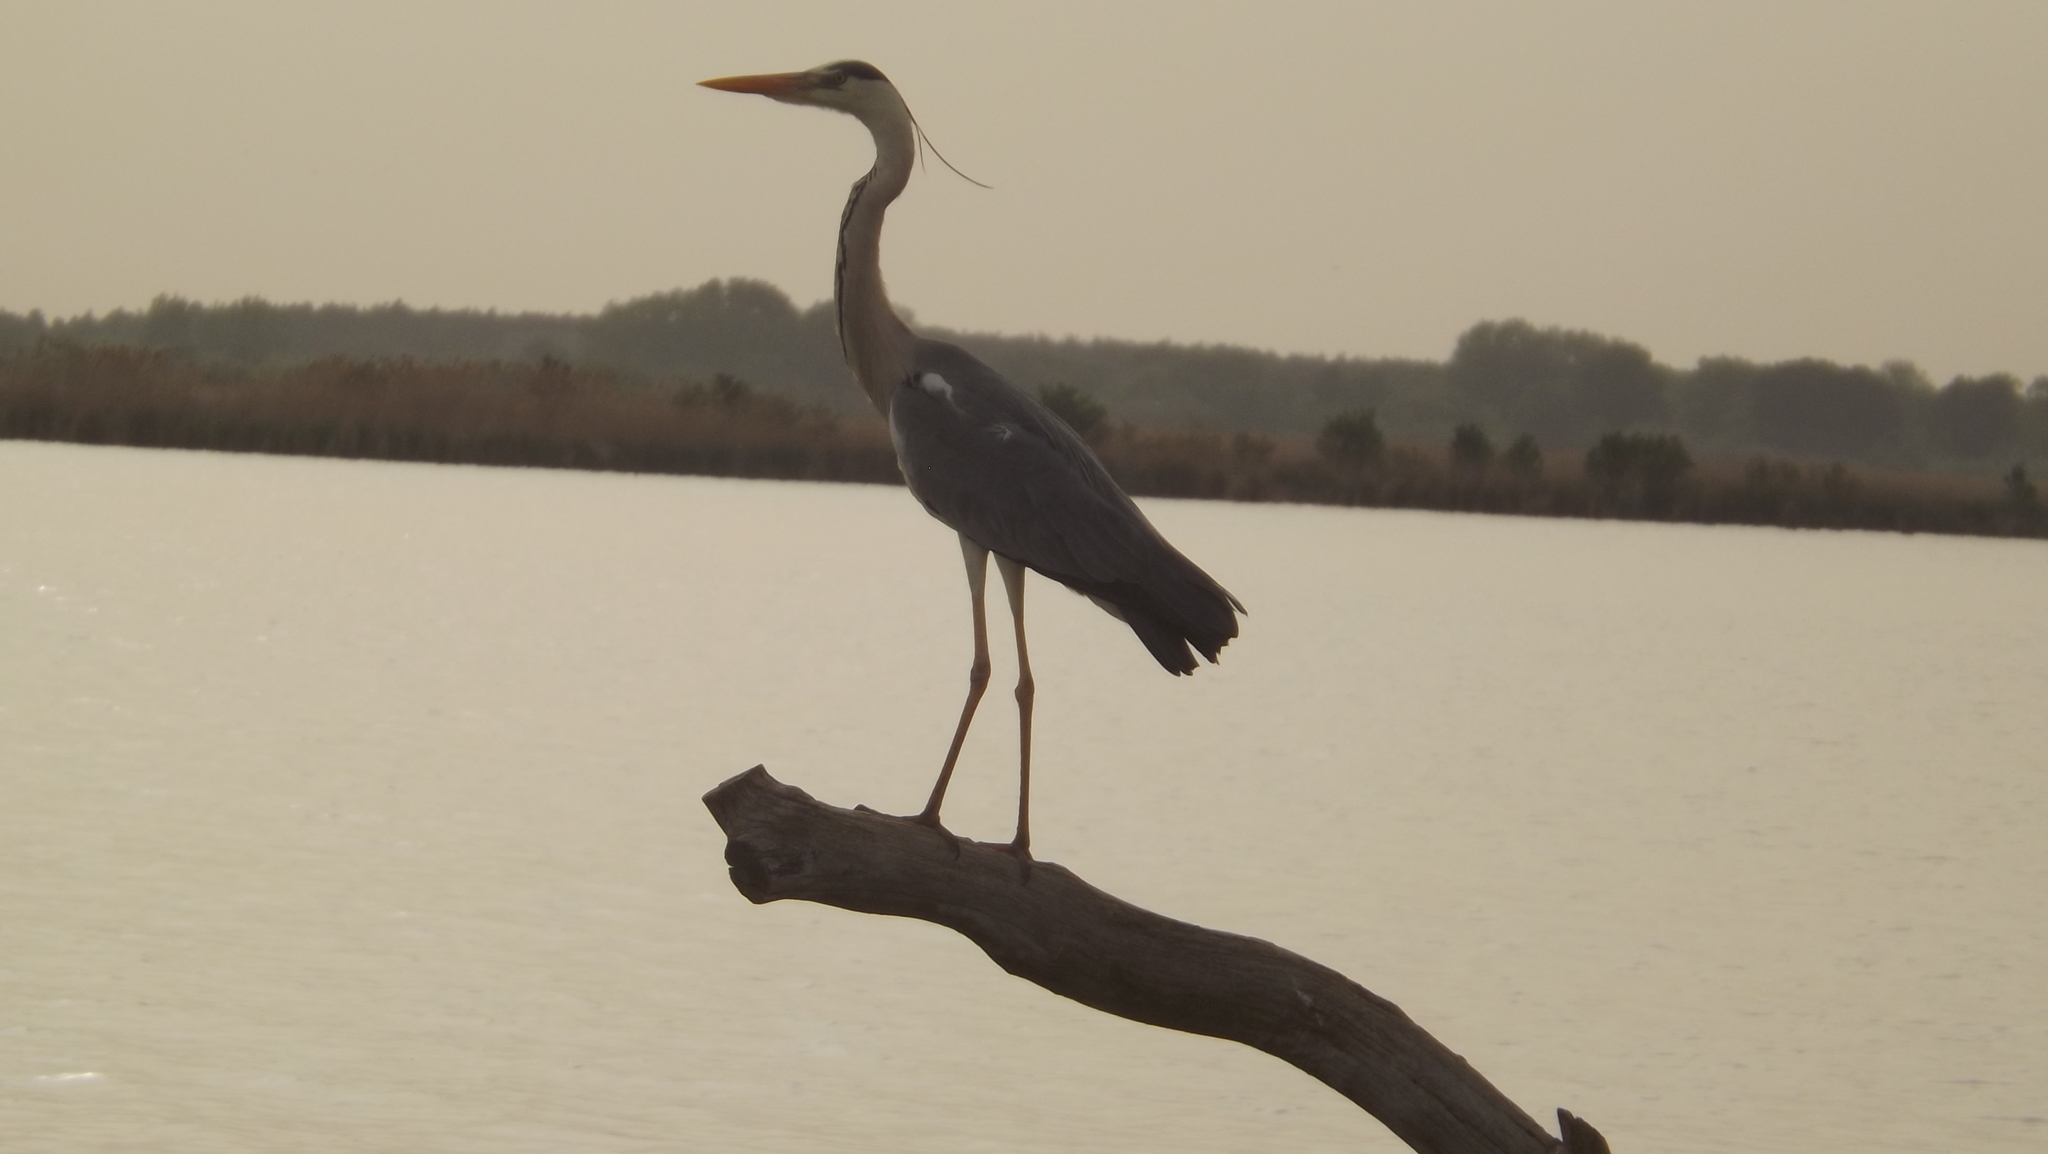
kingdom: Animalia
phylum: Chordata
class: Aves
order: Pelecaniformes
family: Ardeidae
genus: Ardea
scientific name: Ardea cinerea
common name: Grey heron
